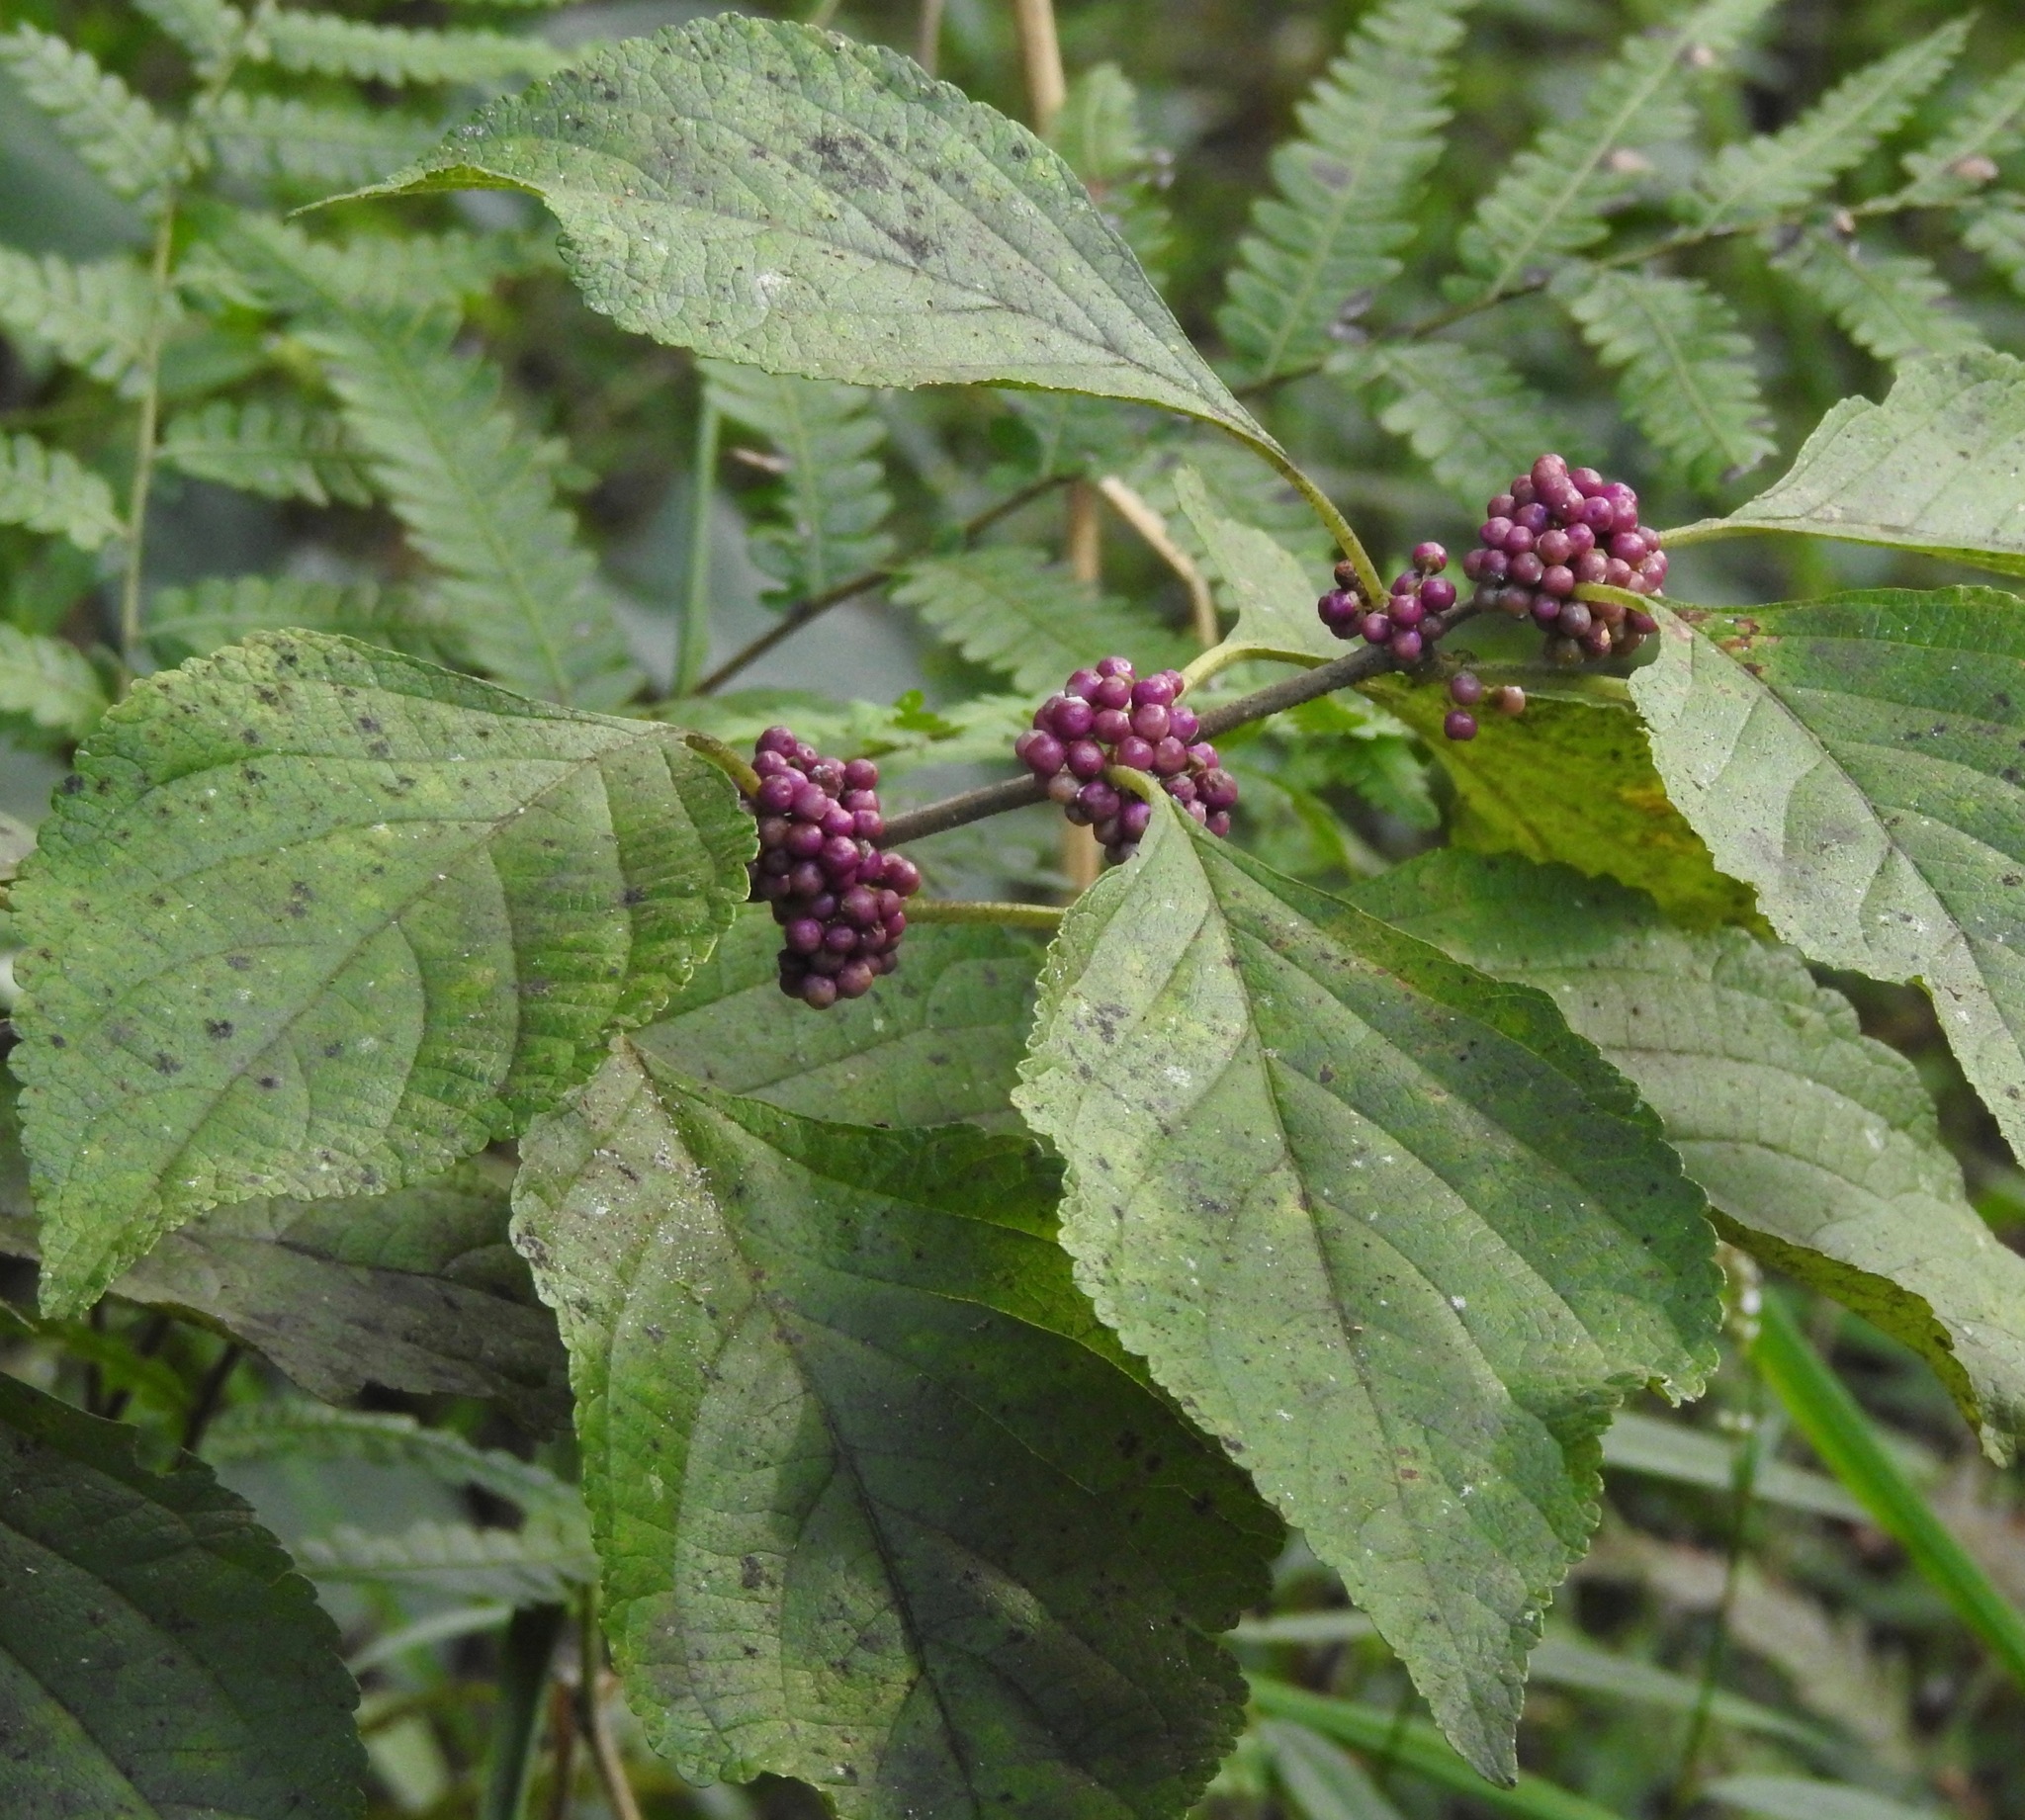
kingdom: Plantae
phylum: Tracheophyta
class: Magnoliopsida
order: Lamiales
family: Lamiaceae
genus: Callicarpa
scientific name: Callicarpa americana
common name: American beautyberry
